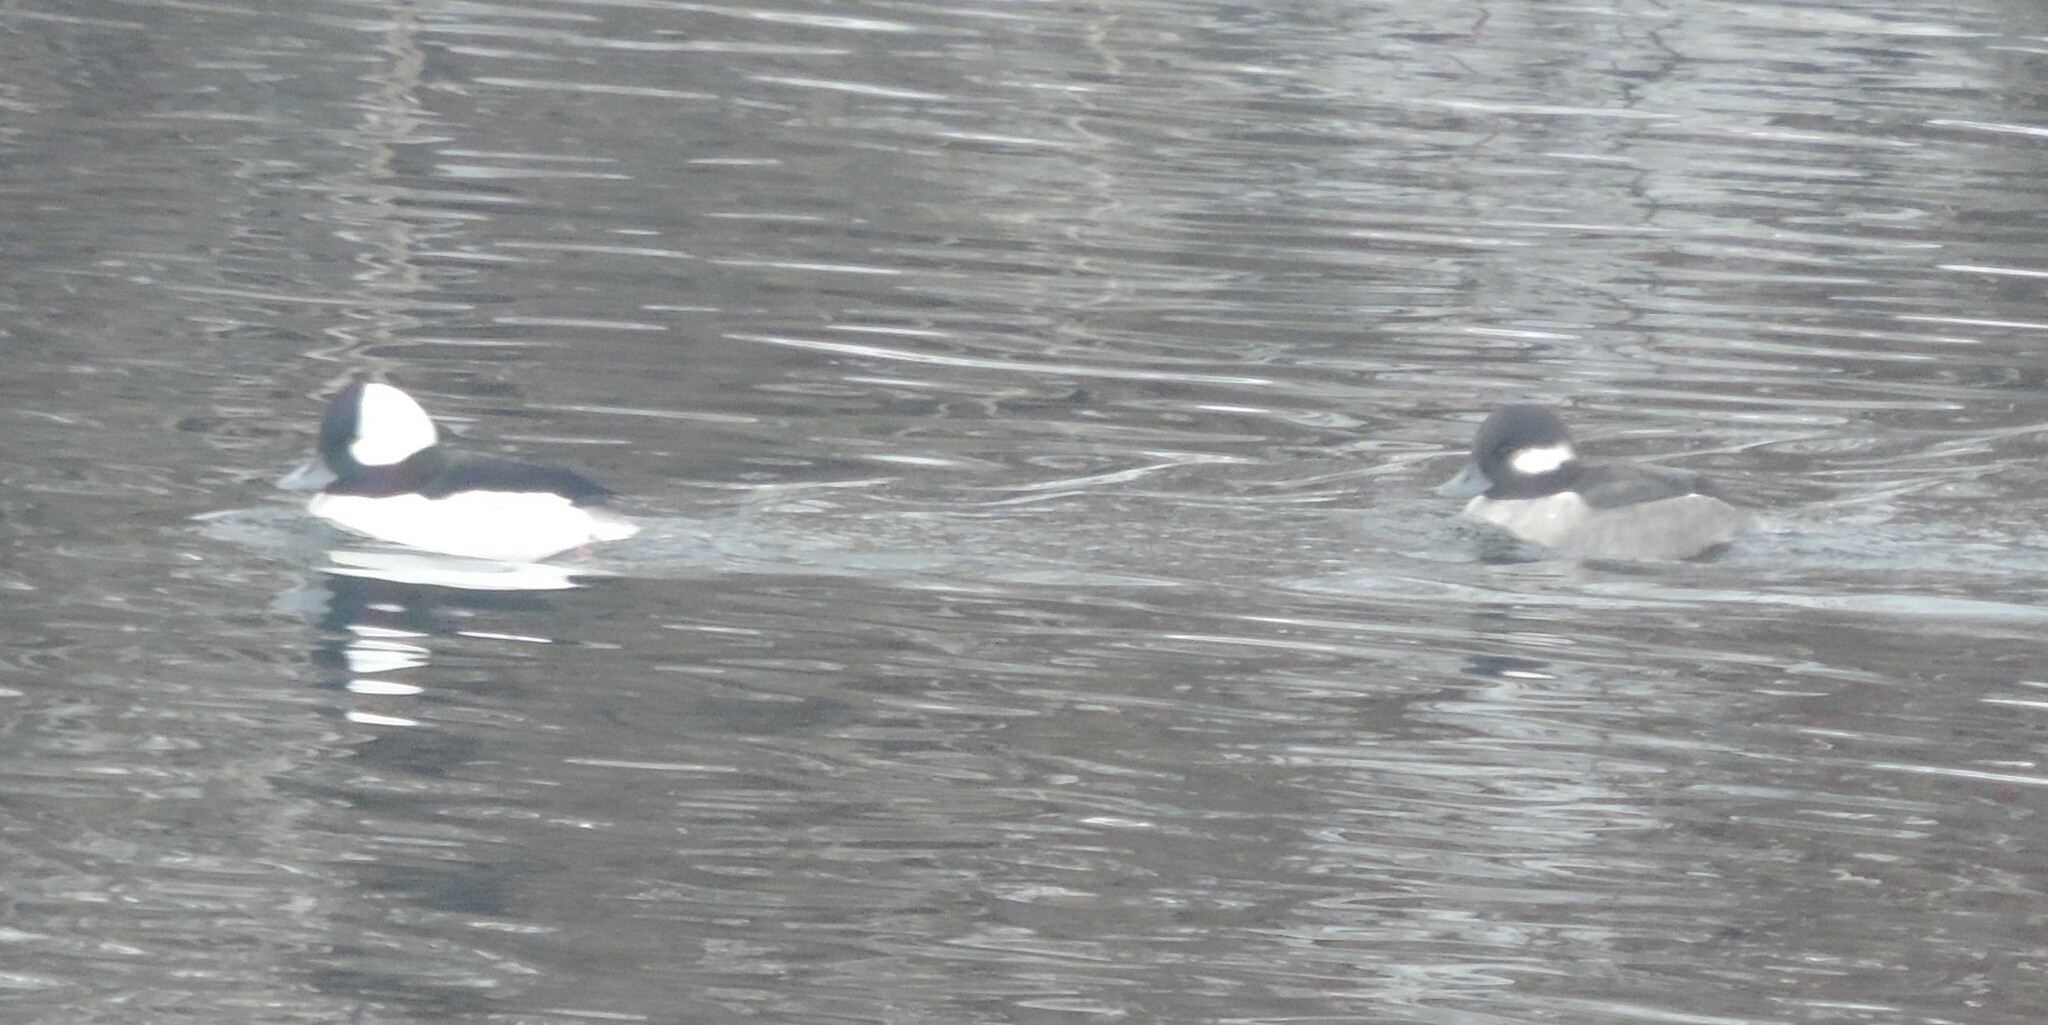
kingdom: Animalia
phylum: Chordata
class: Aves
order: Anseriformes
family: Anatidae
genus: Bucephala
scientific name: Bucephala albeola
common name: Bufflehead
